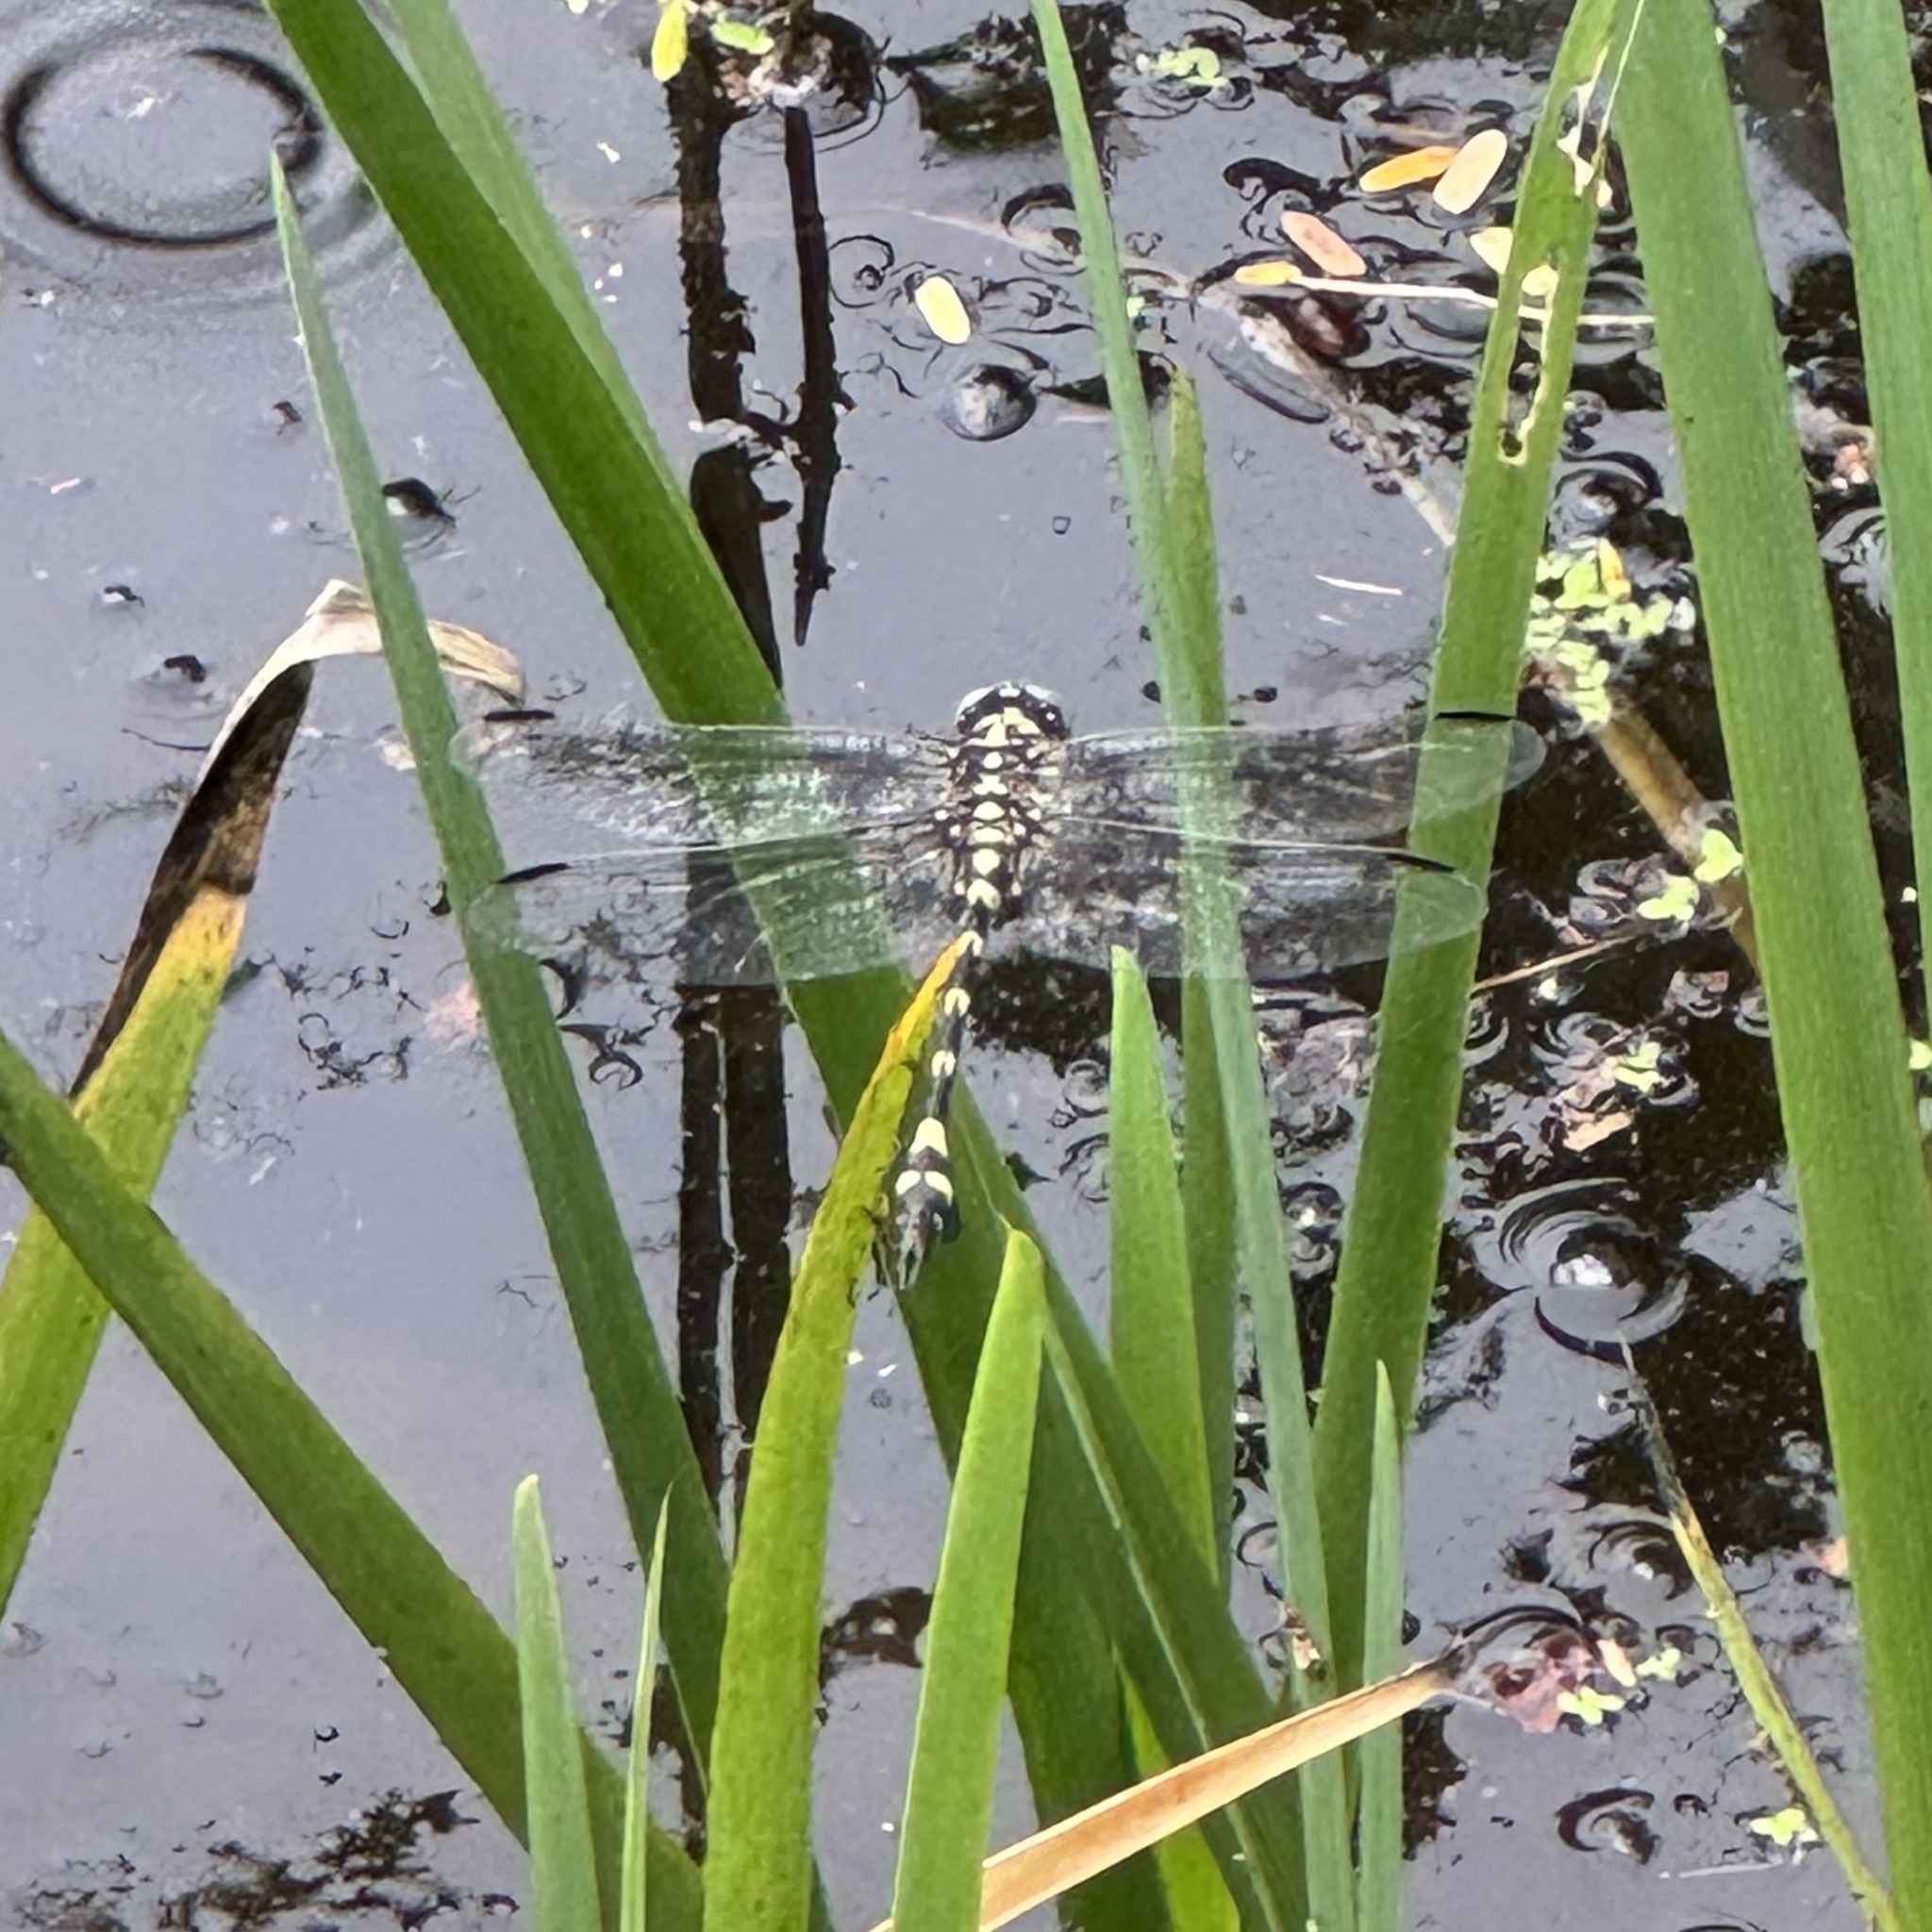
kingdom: Animalia
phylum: Arthropoda
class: Insecta
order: Odonata
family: Gomphidae
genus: Ictinogomphus
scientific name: Ictinogomphus australis
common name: Australian tiger
